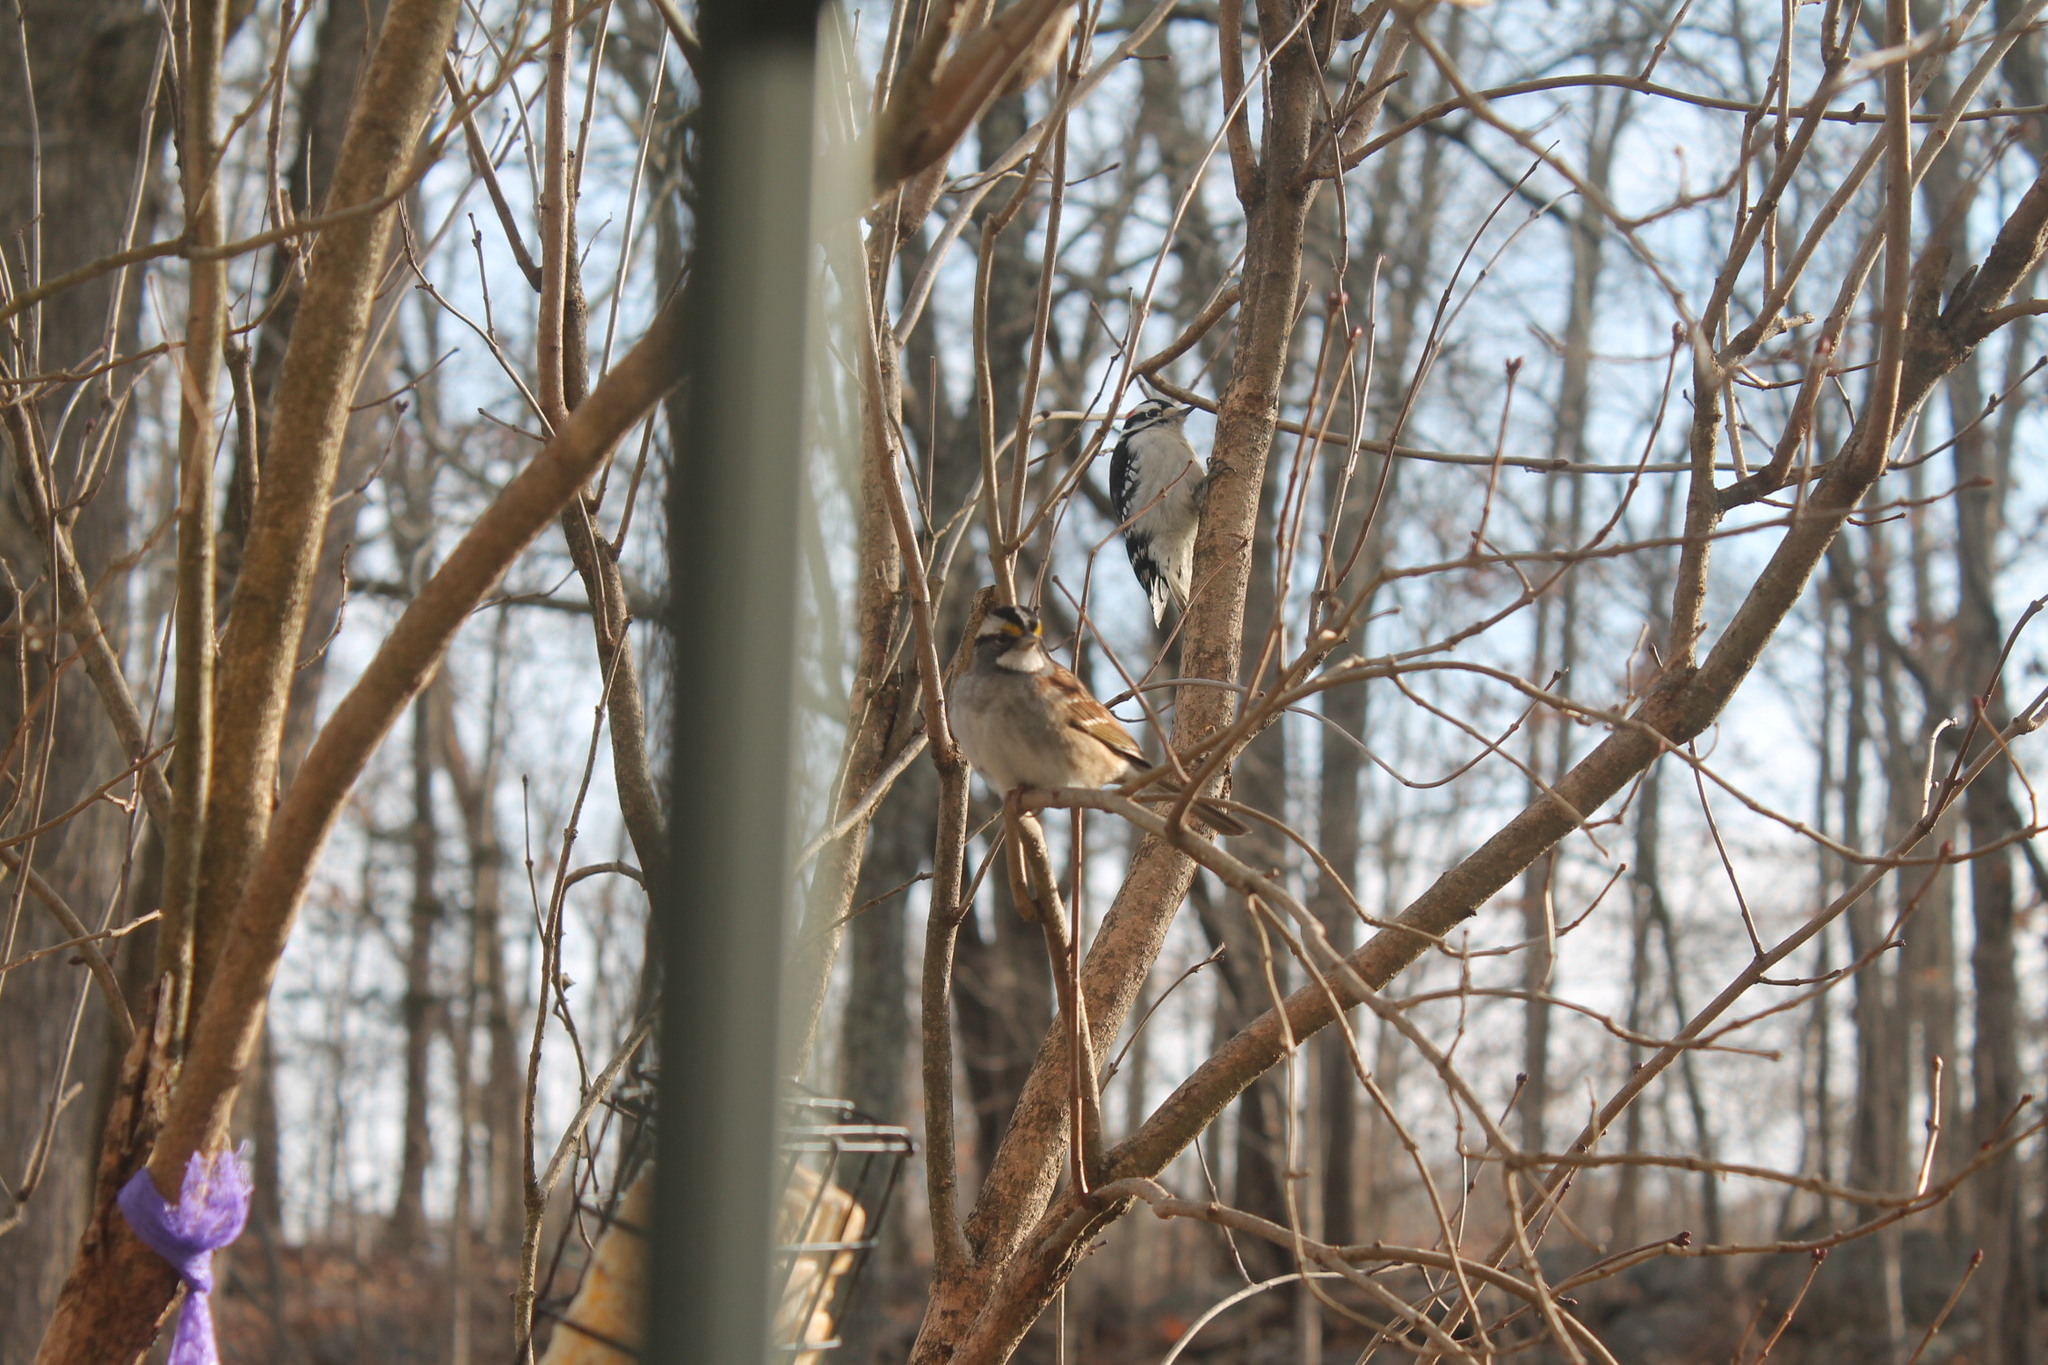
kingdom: Animalia
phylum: Chordata
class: Aves
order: Passeriformes
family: Passerellidae
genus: Zonotrichia
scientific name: Zonotrichia albicollis
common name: White-throated sparrow
